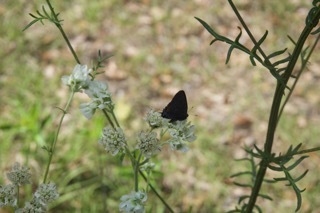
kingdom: Animalia
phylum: Arthropoda
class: Insecta
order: Lepidoptera
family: Lycaenidae
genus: Satyrium
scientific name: Satyrium calanus
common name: Banded hairstreak
